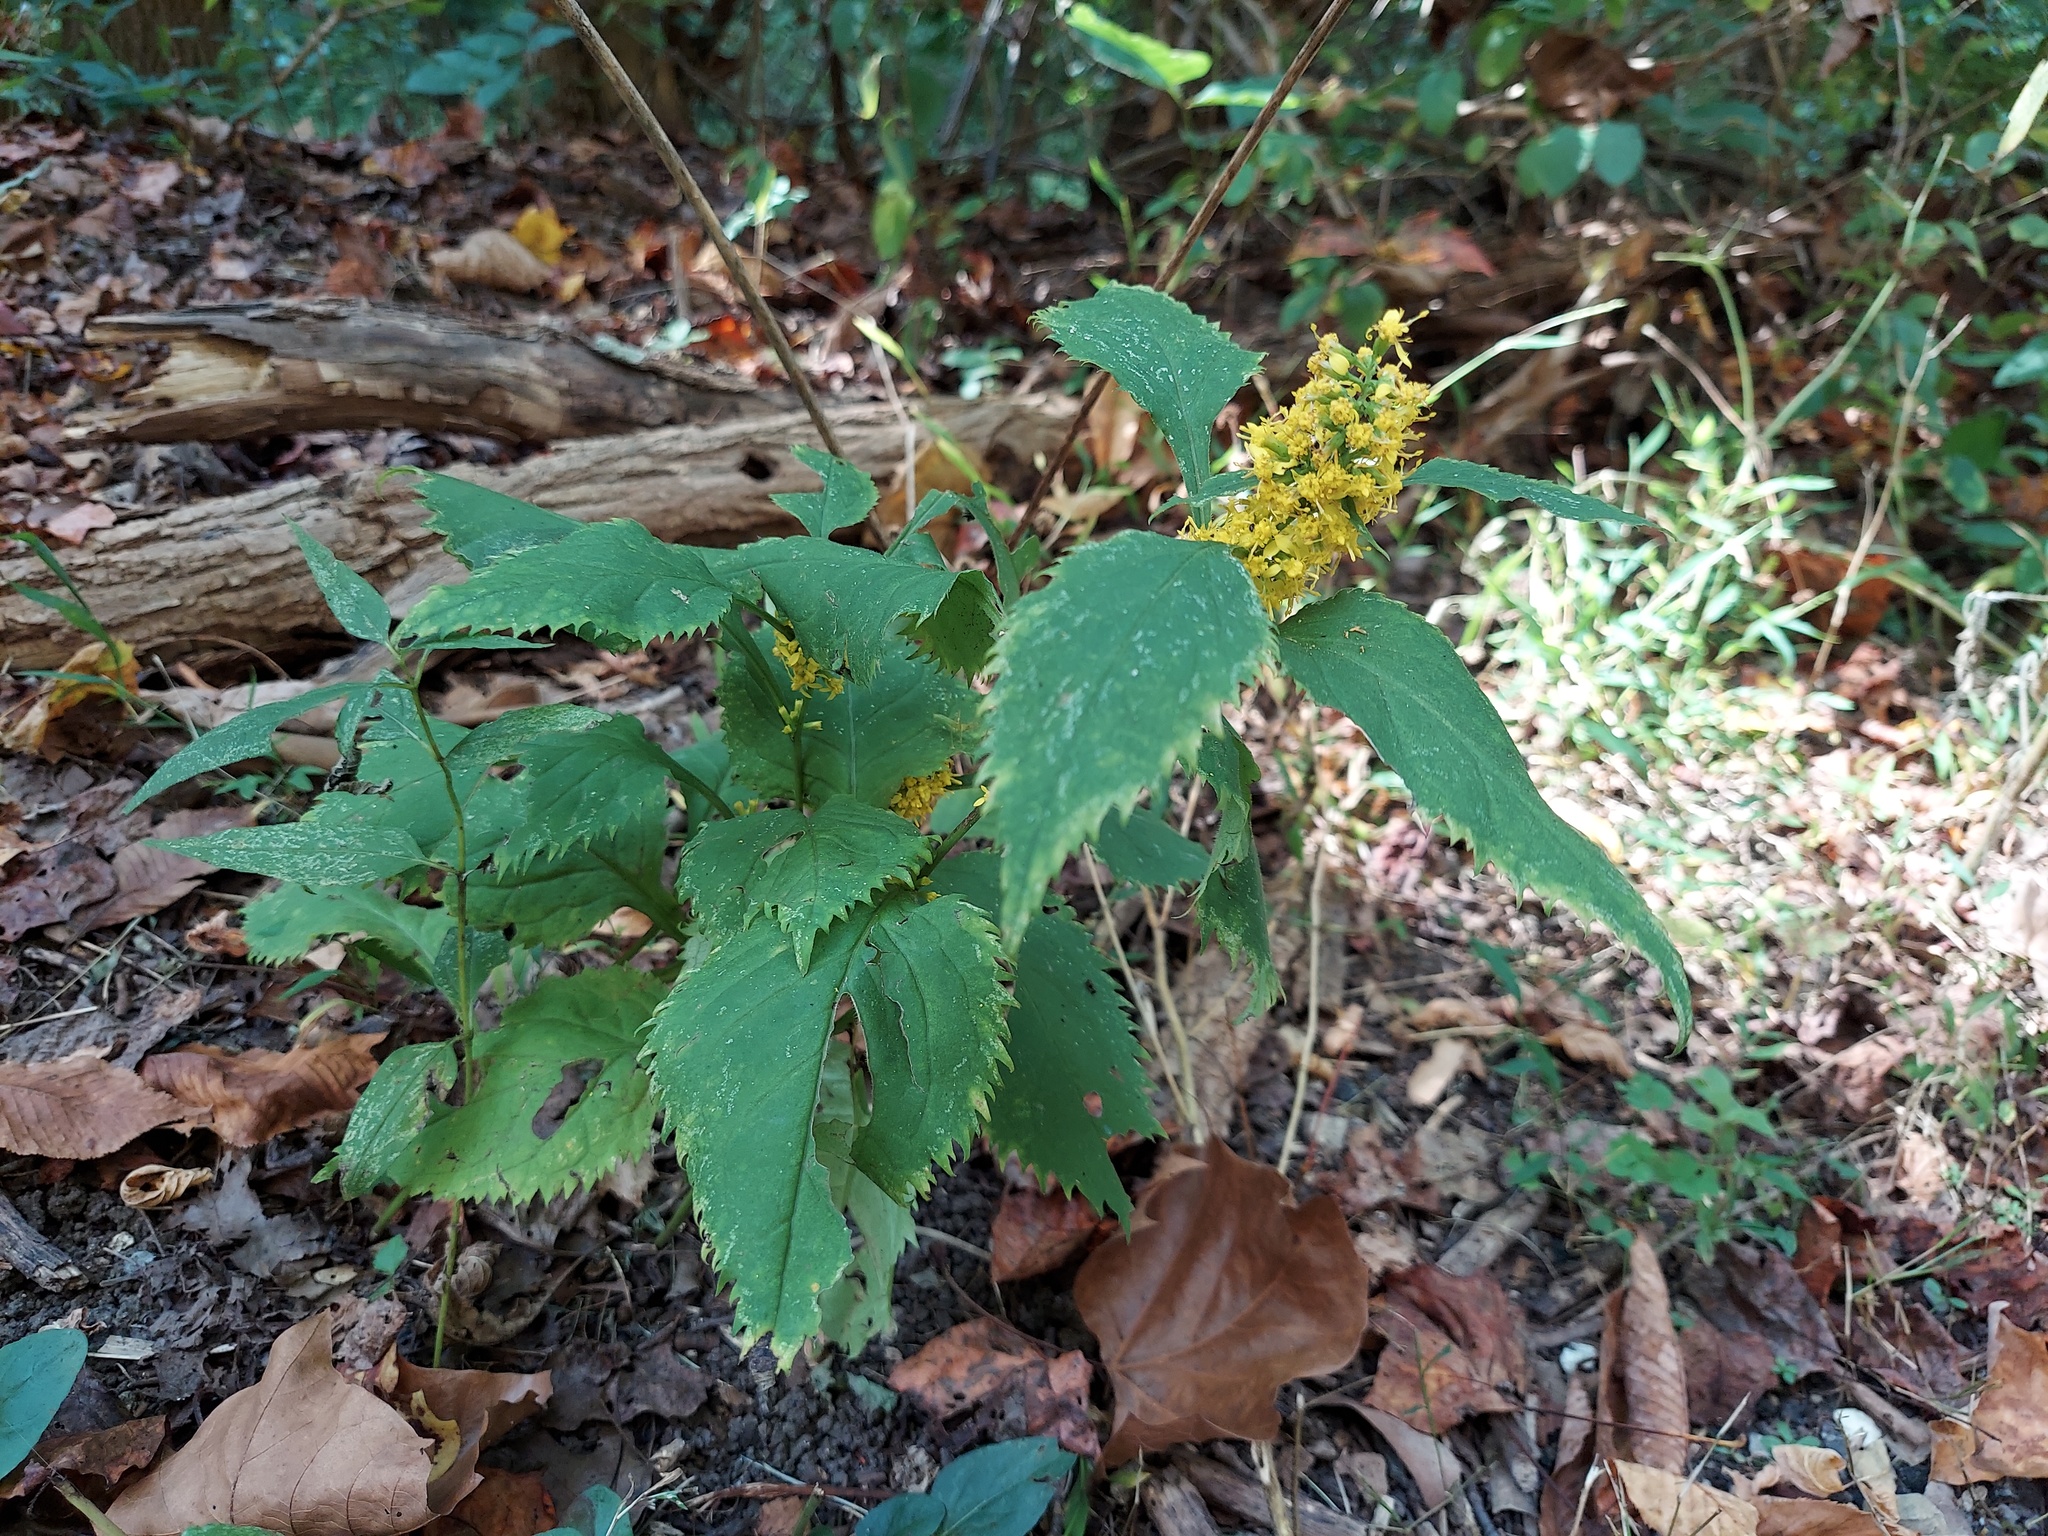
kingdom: Plantae
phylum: Tracheophyta
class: Magnoliopsida
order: Asterales
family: Asteraceae
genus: Solidago
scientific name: Solidago flexicaulis
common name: Zig-zag goldenrod
